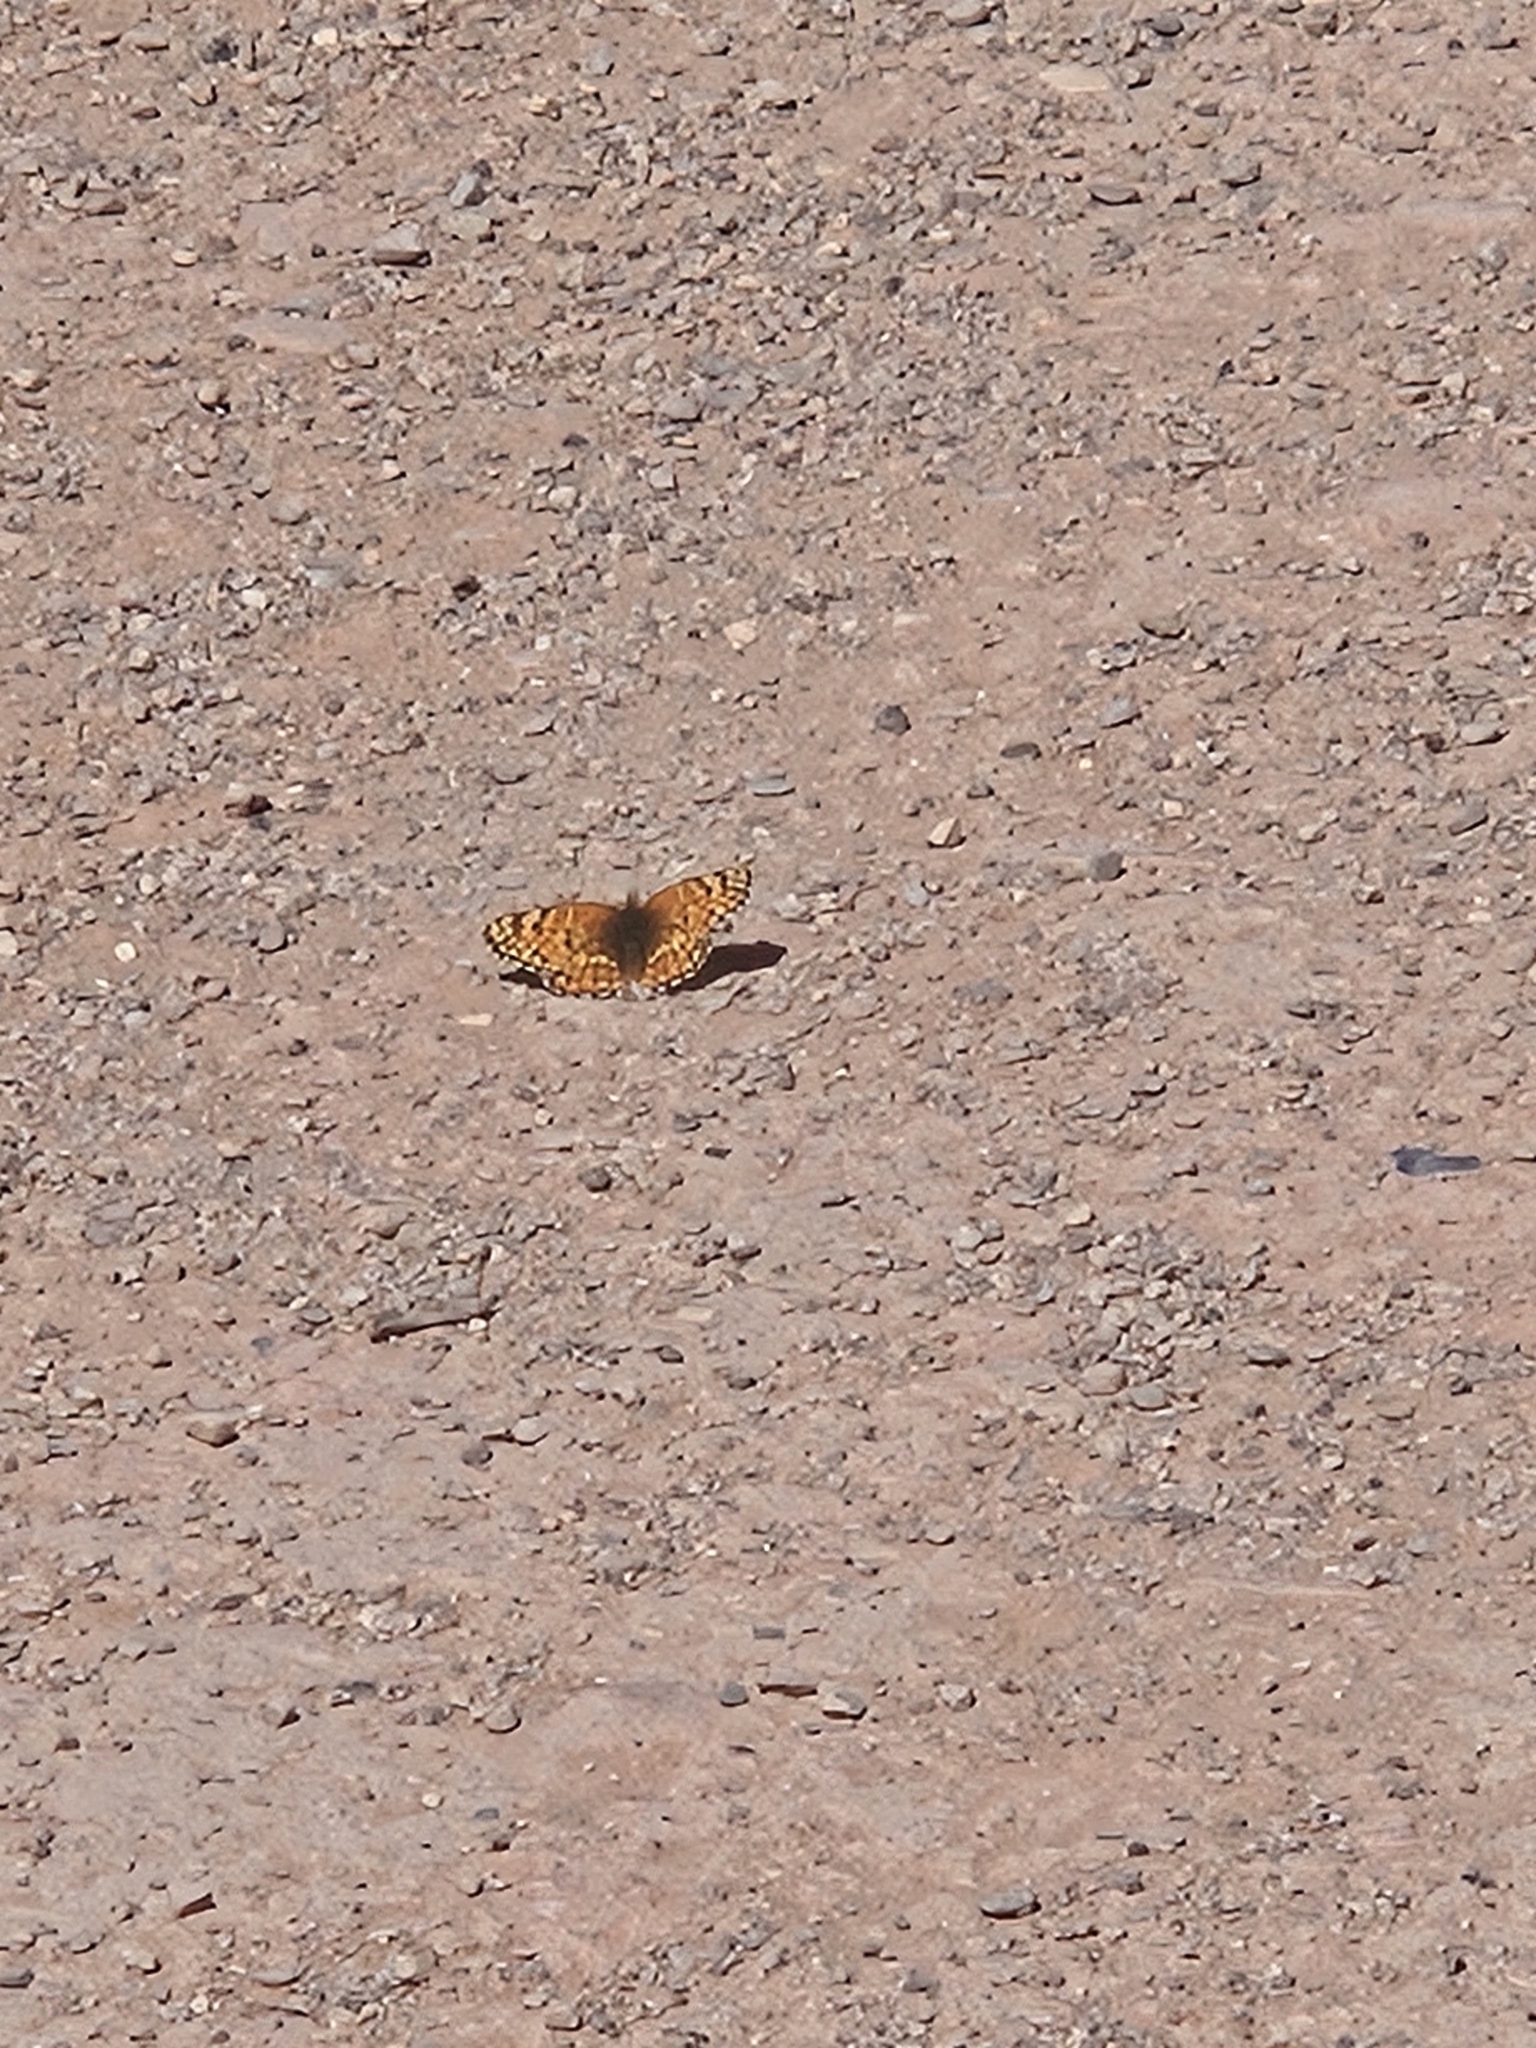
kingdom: Animalia
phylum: Arthropoda
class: Insecta
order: Lepidoptera
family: Nymphalidae
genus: Chlosyne
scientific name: Chlosyne acastus
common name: Sagebrush checkerspot
